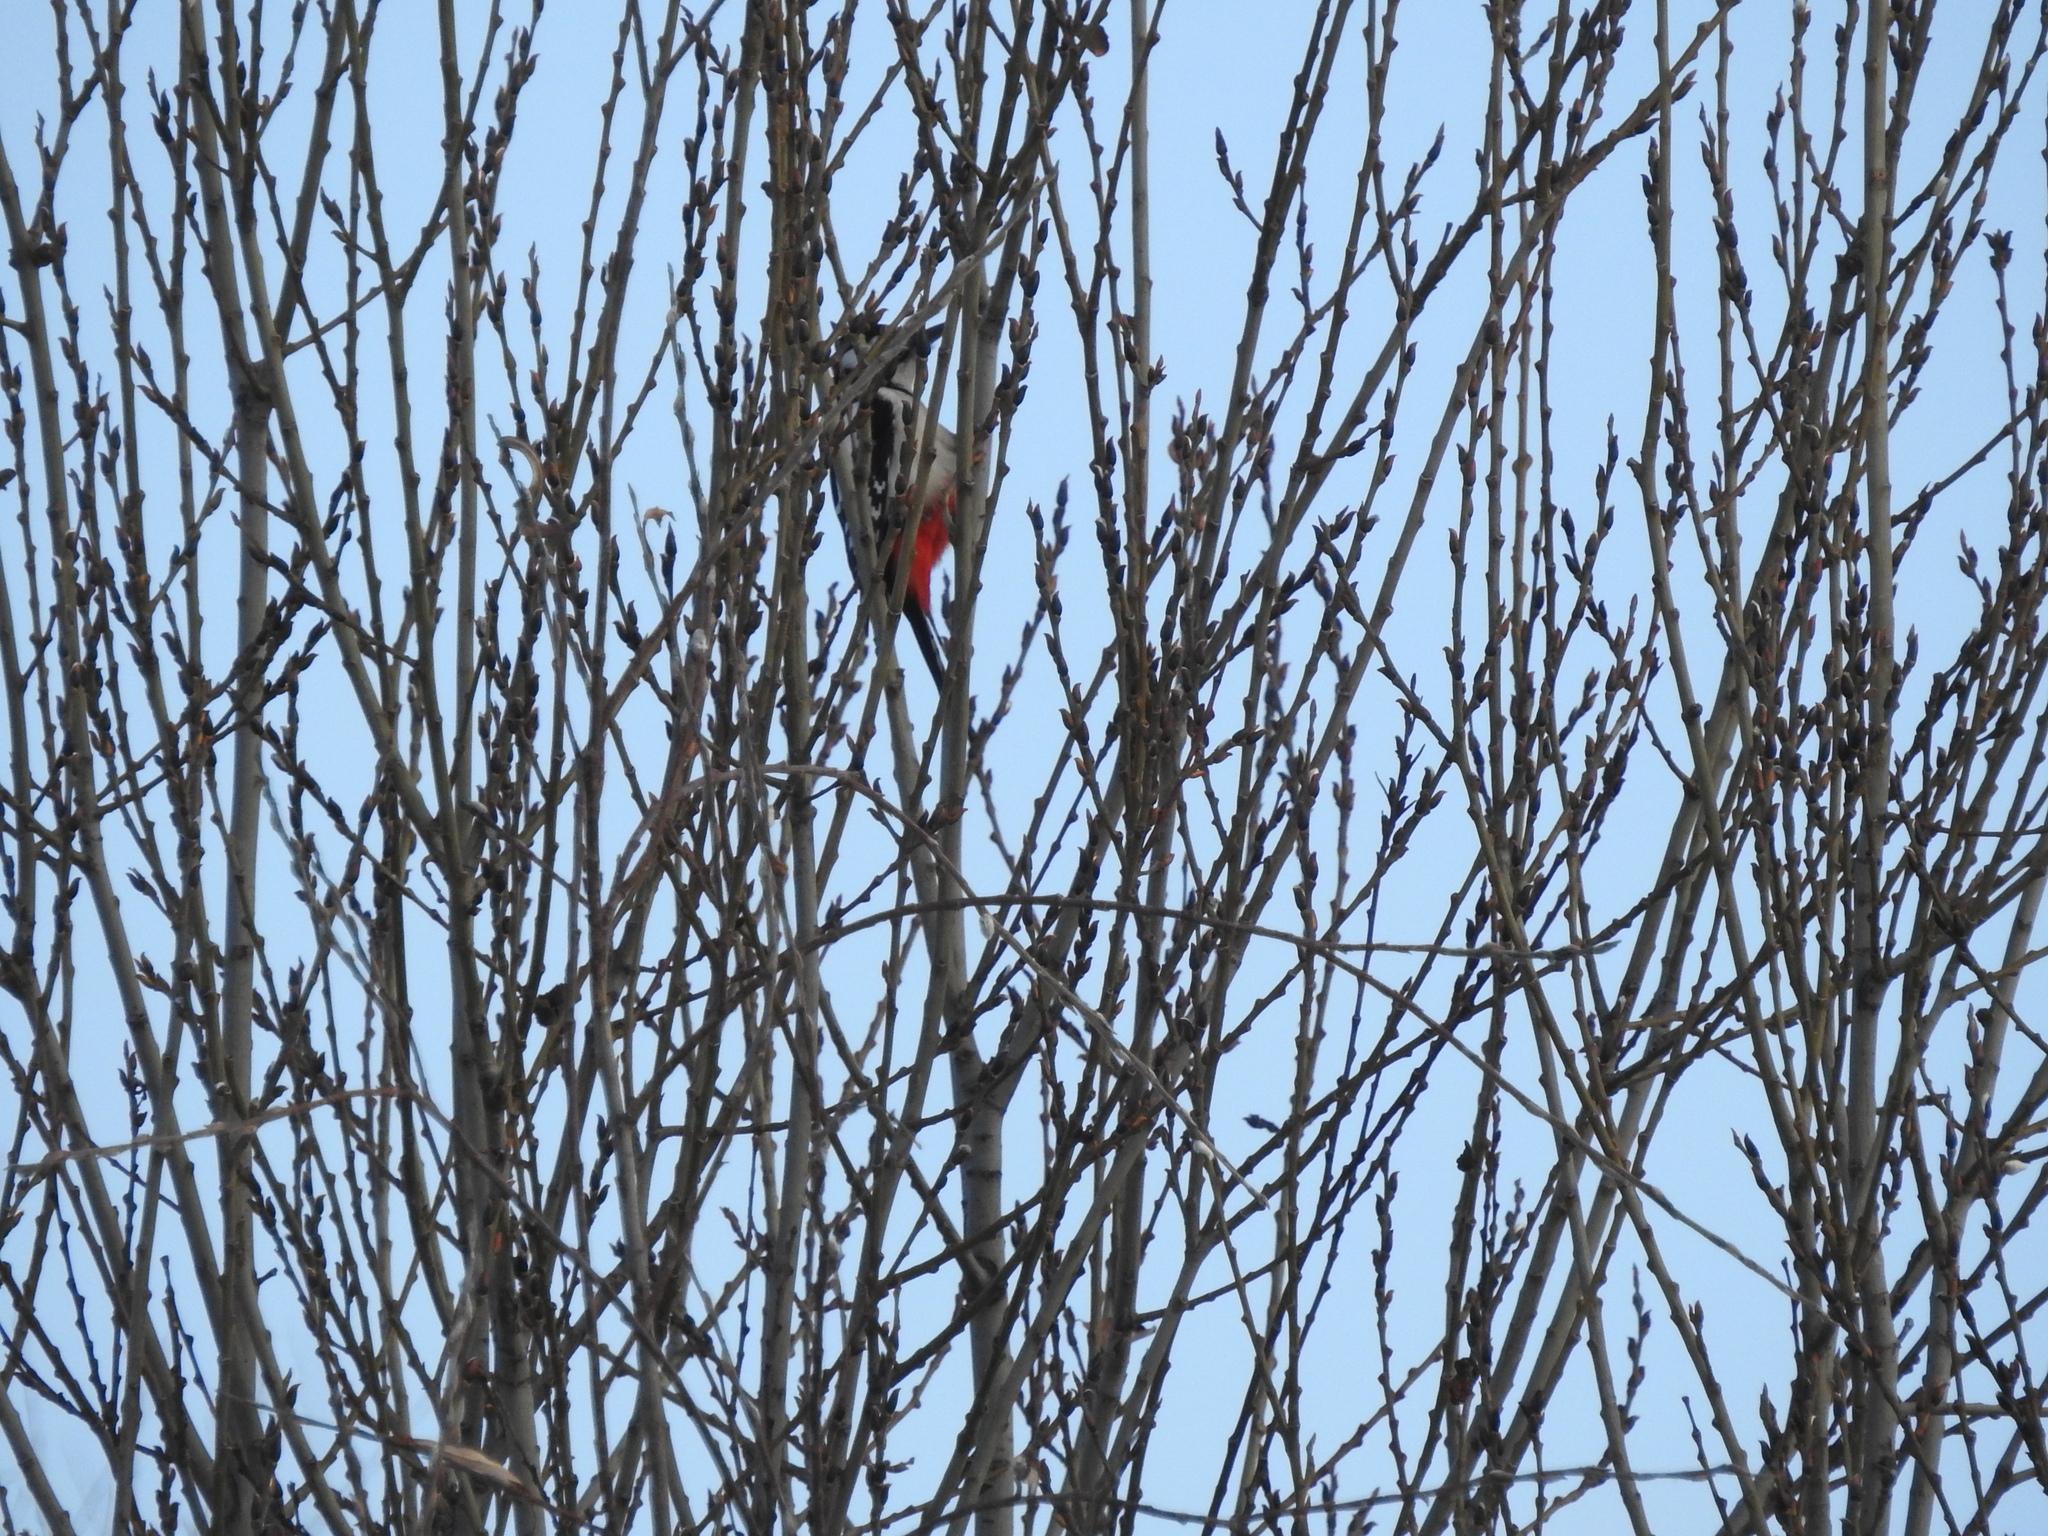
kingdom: Animalia
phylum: Chordata
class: Aves
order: Piciformes
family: Picidae
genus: Dendrocopos
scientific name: Dendrocopos major
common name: Great spotted woodpecker
